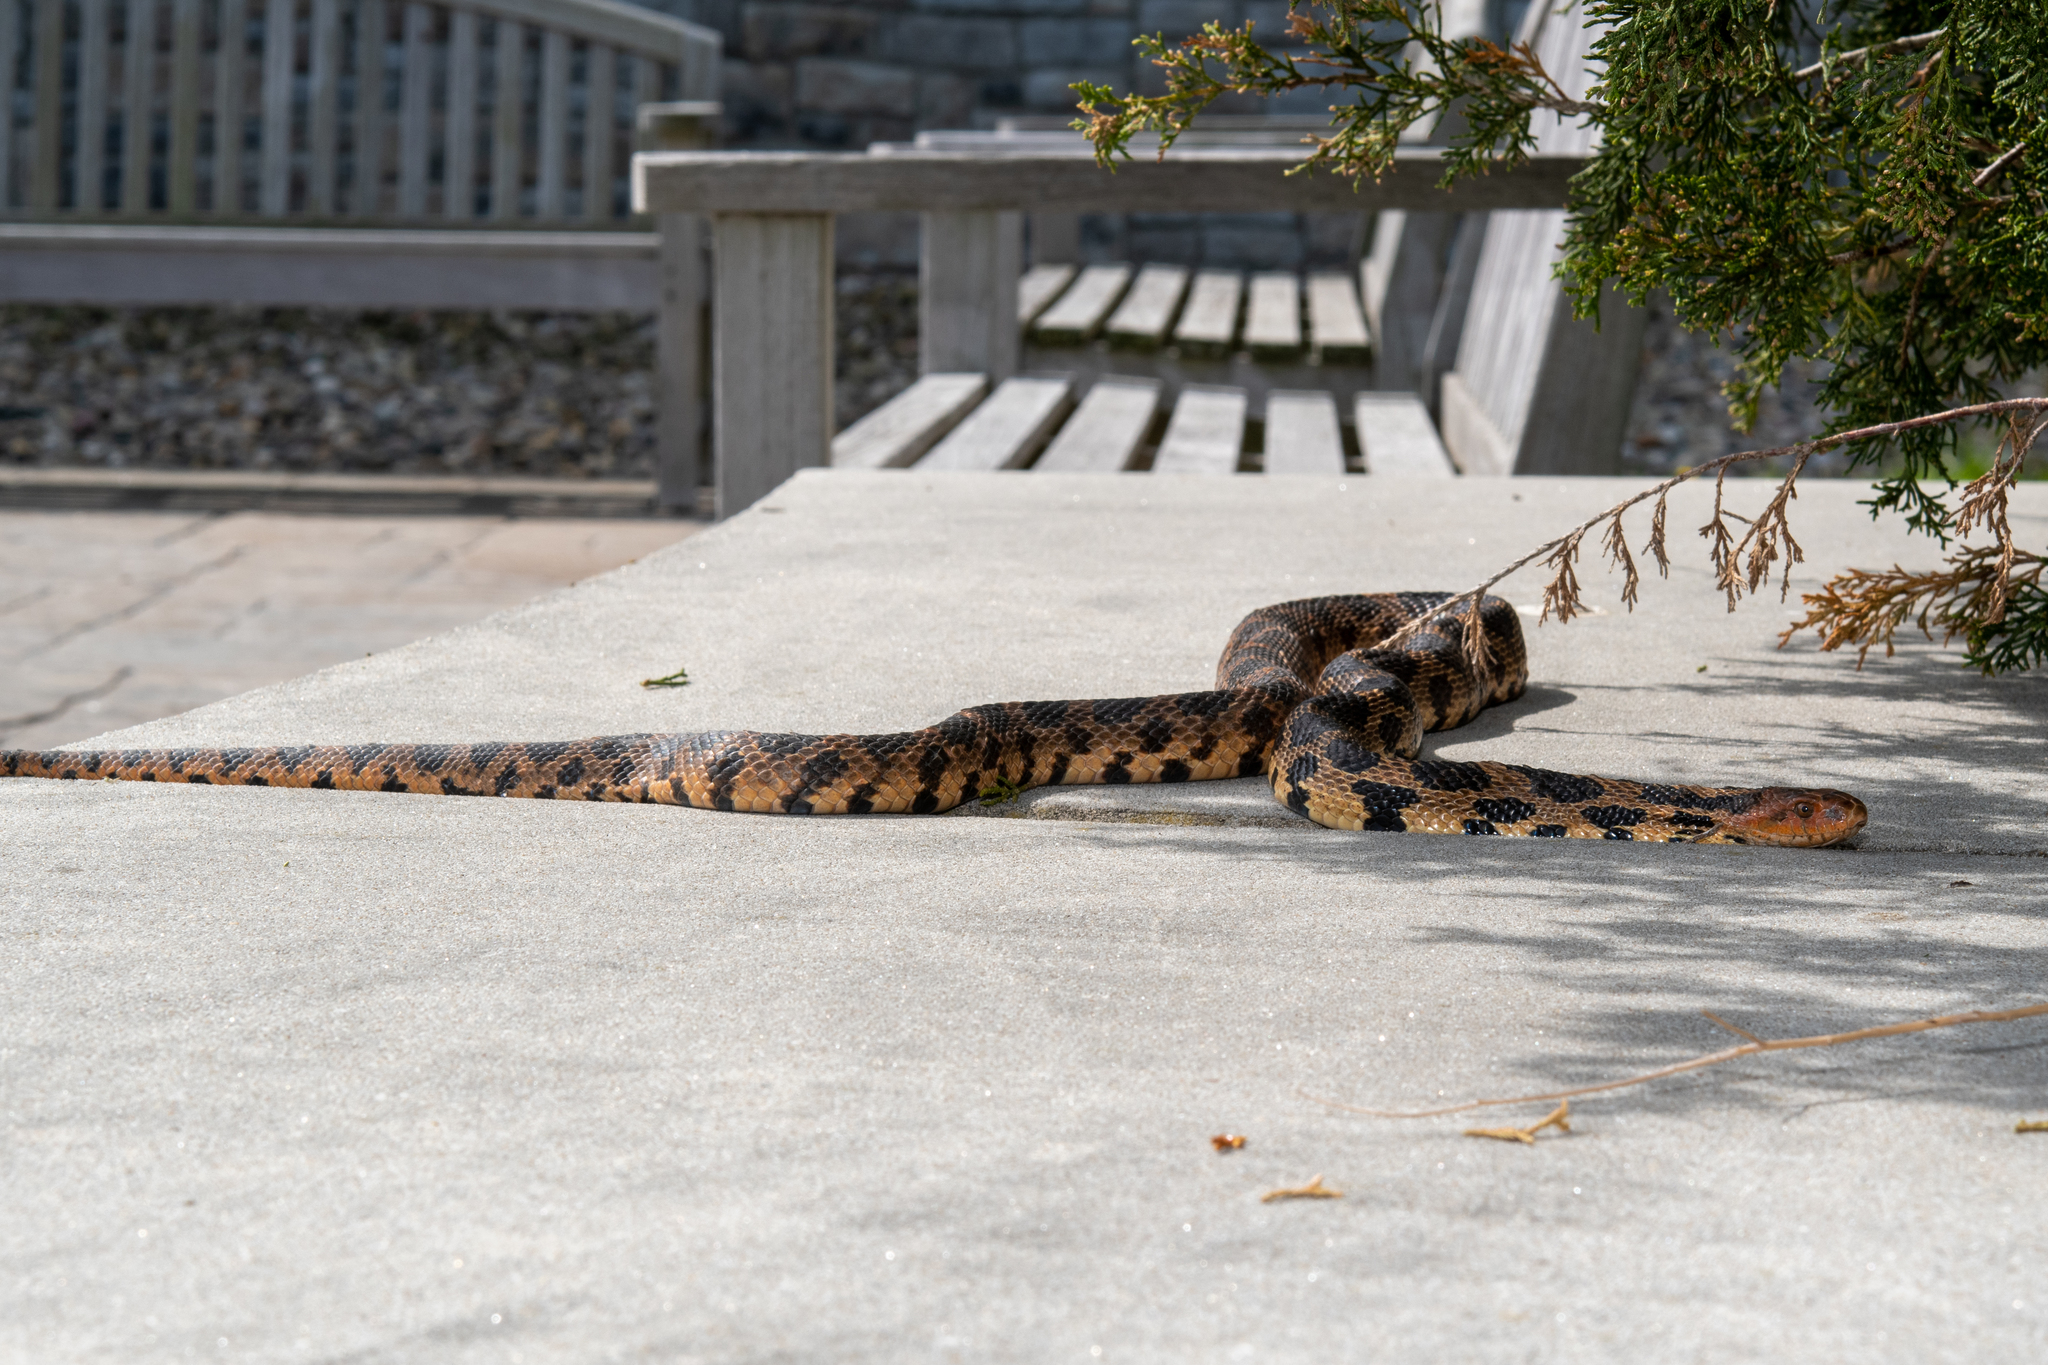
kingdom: Animalia
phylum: Chordata
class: Squamata
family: Colubridae
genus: Pantherophis
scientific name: Pantherophis vulpinus
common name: Eastern fox snake
